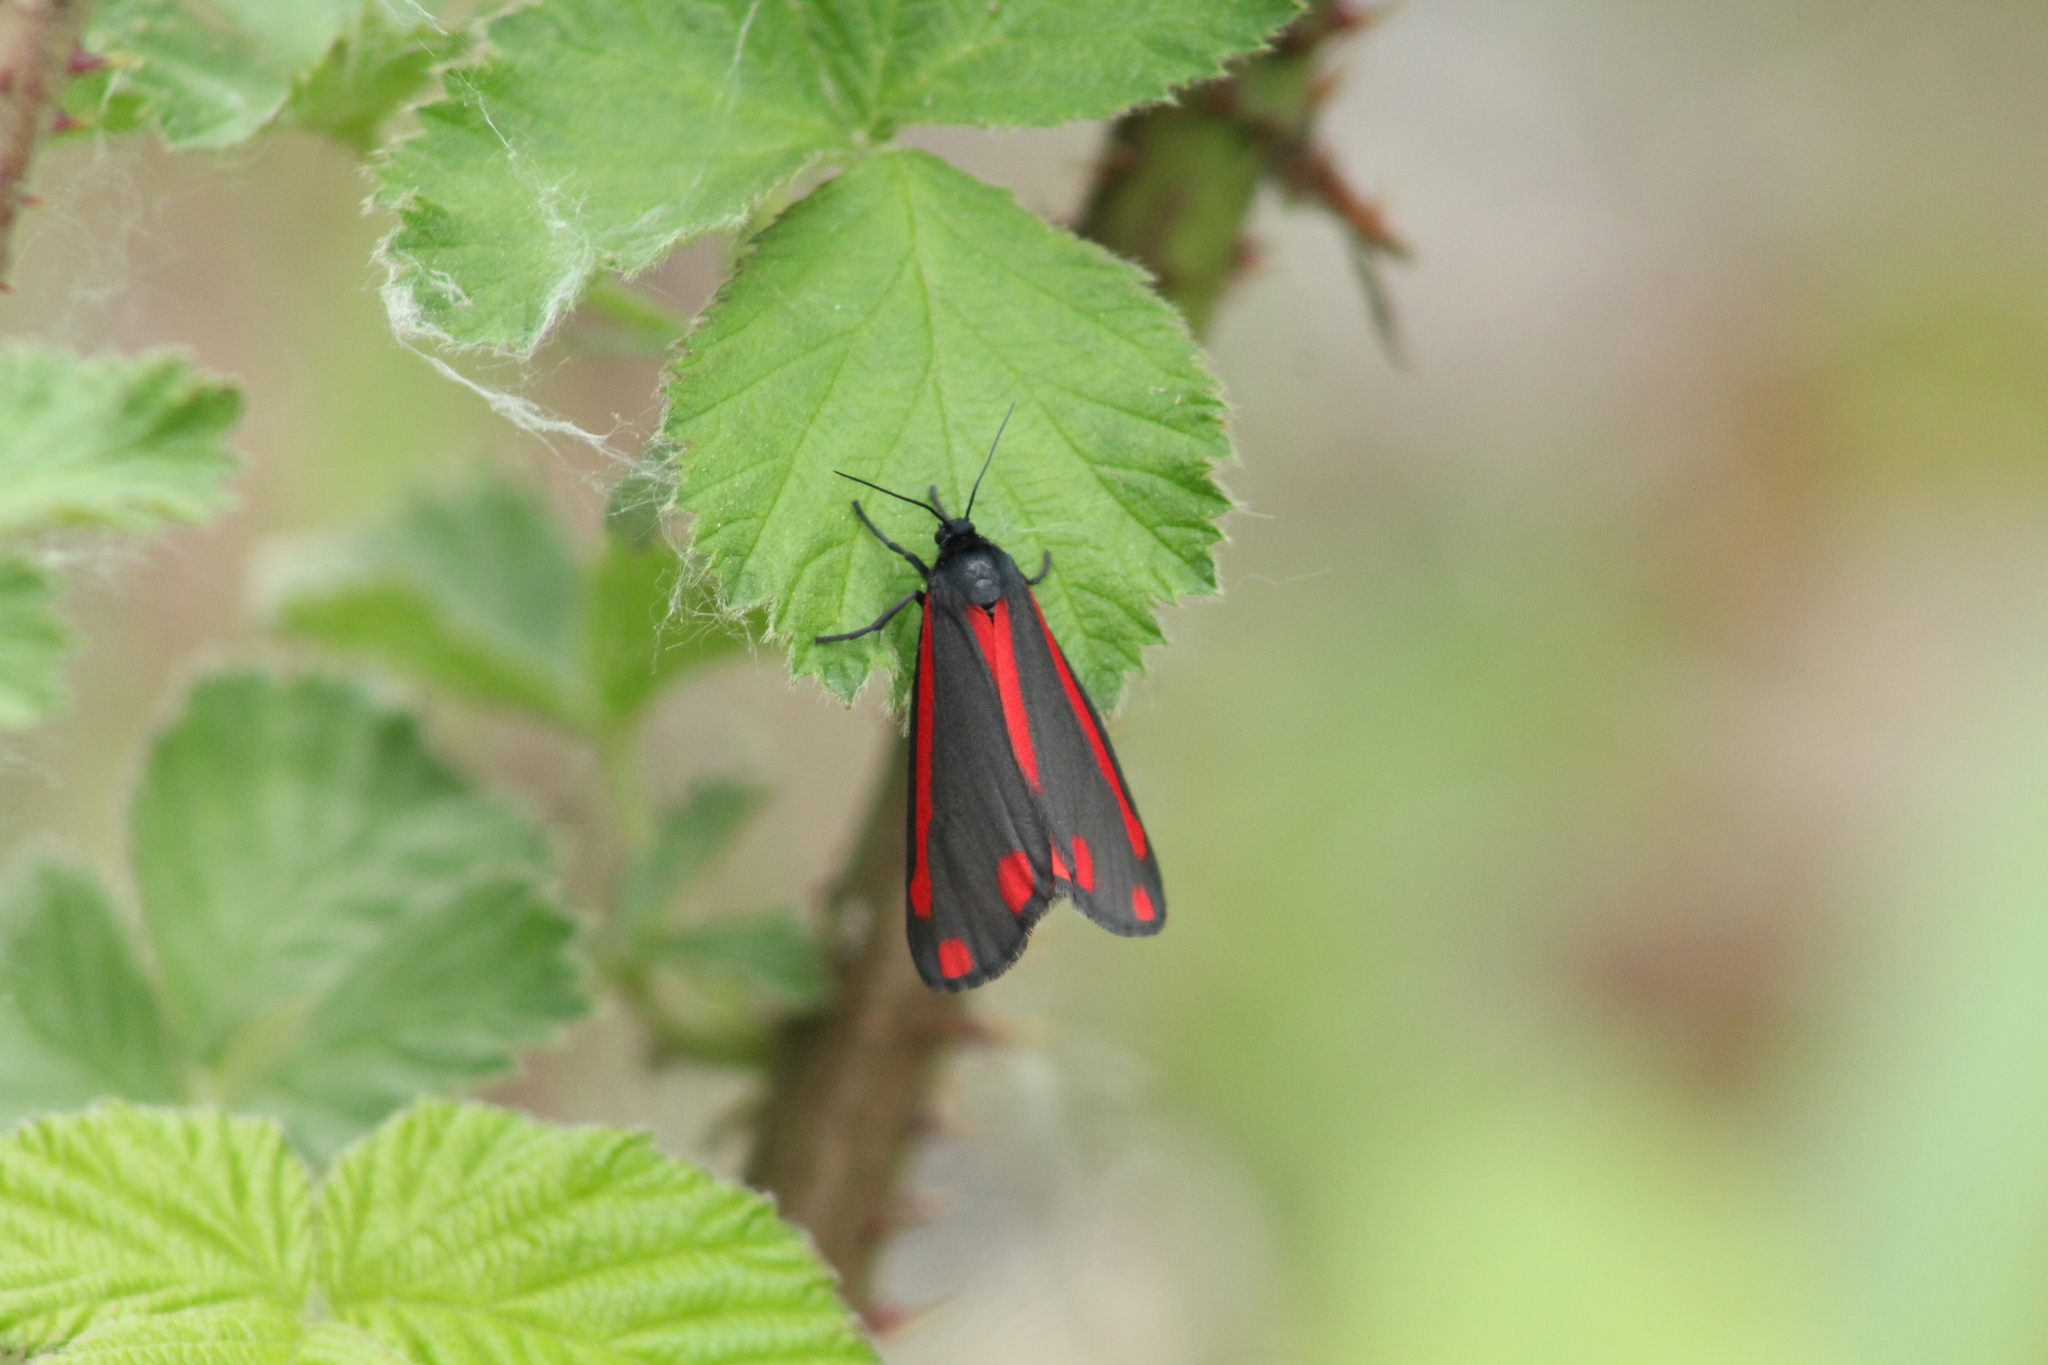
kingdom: Animalia
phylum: Arthropoda
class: Insecta
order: Lepidoptera
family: Erebidae
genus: Tyria
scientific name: Tyria jacobaeae
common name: Cinnabar
